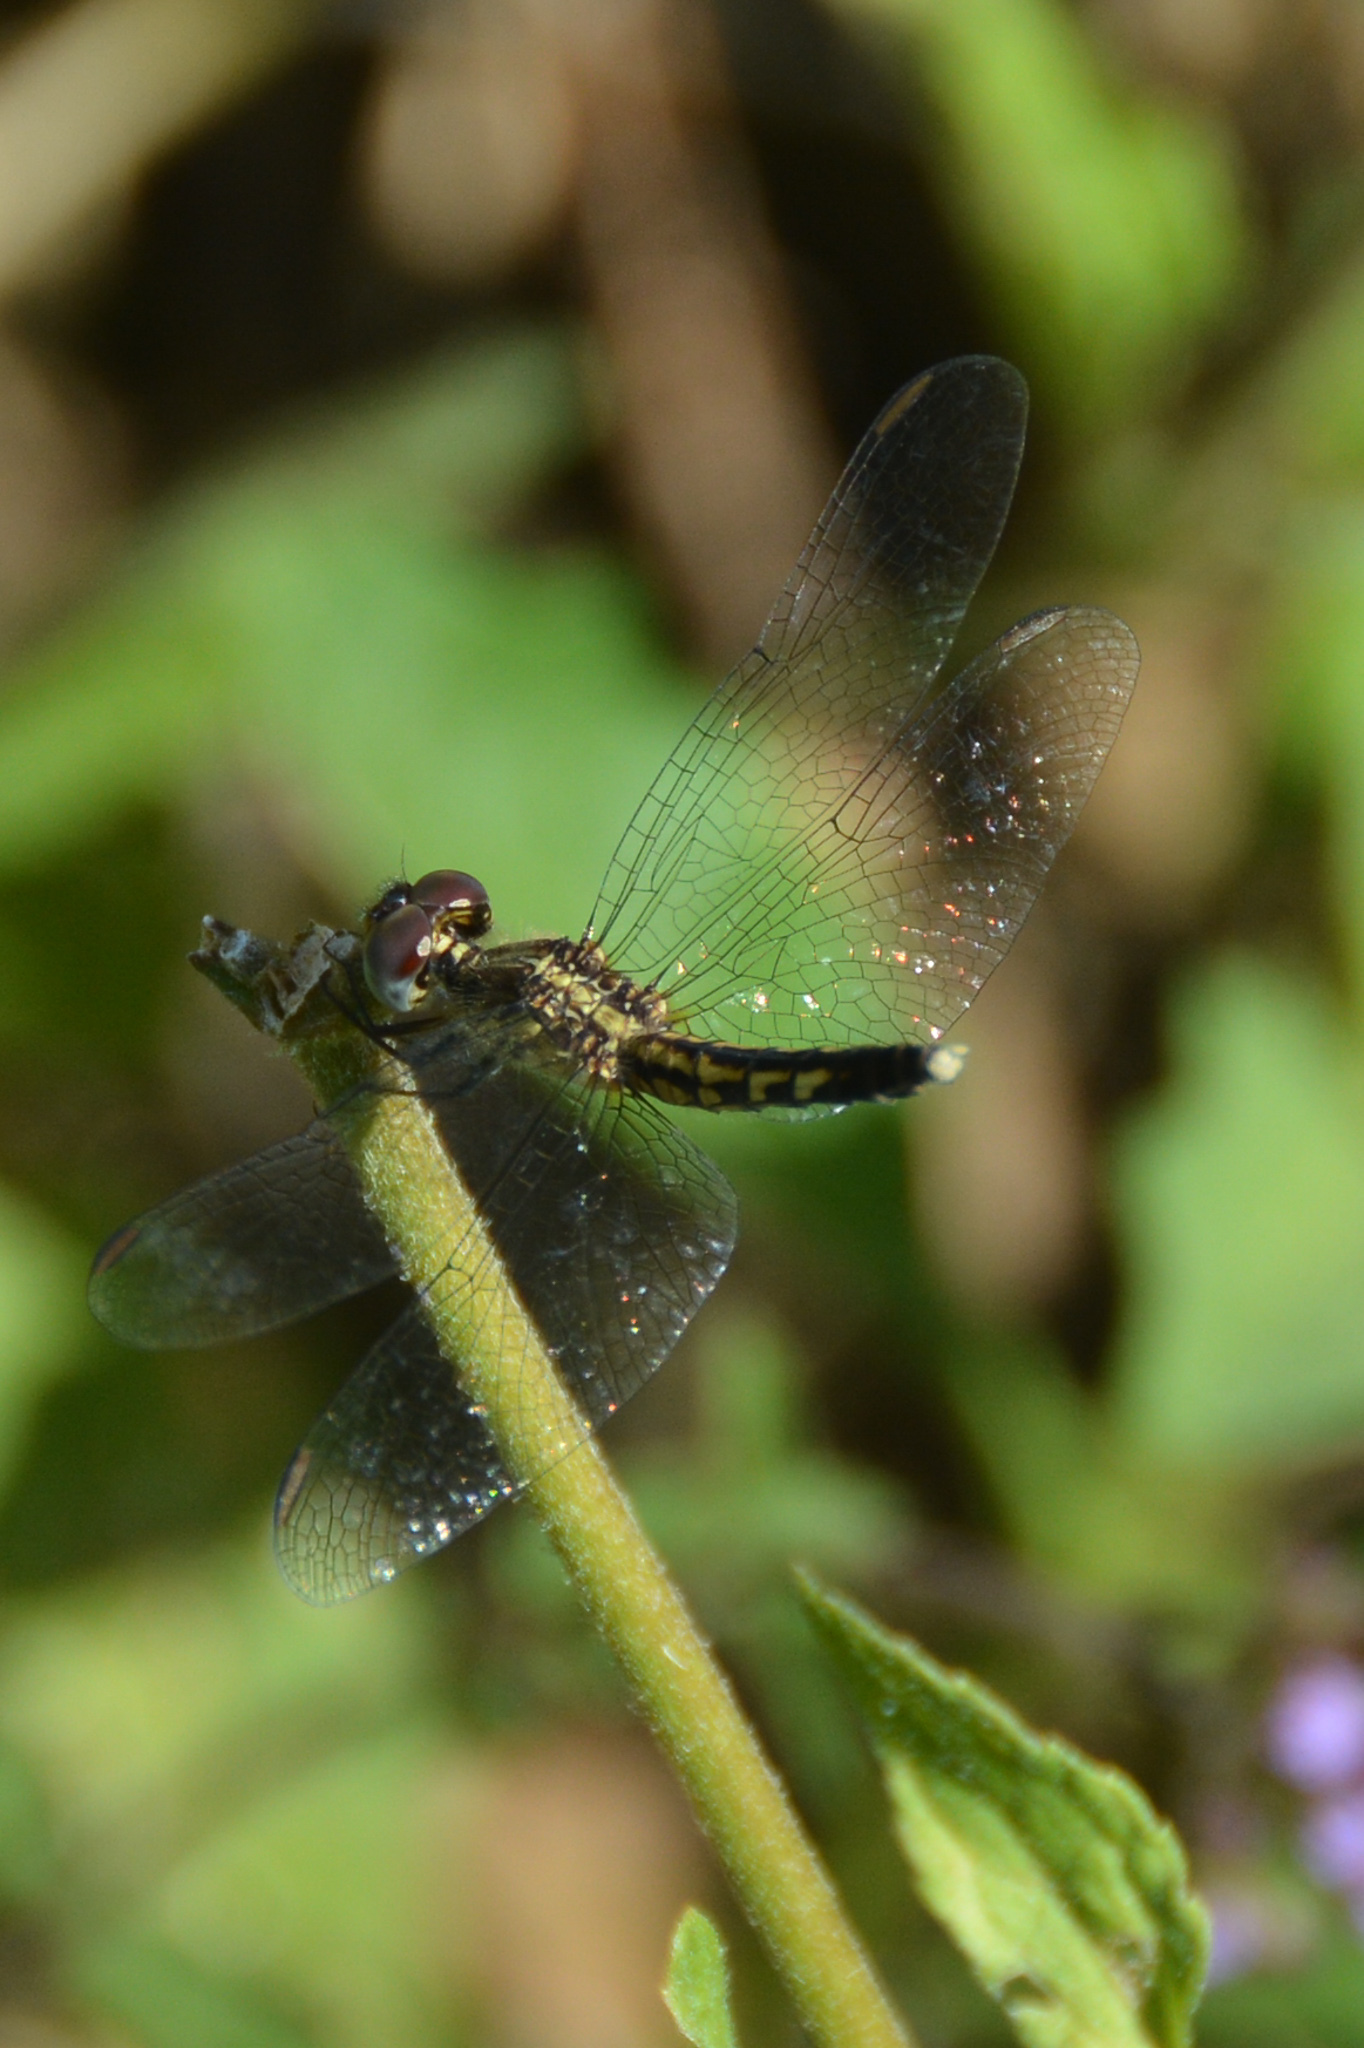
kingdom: Animalia
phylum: Arthropoda
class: Insecta
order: Odonata
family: Libellulidae
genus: Erythrodiplax
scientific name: Erythrodiplax minuscula
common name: Little blue dragonlet
